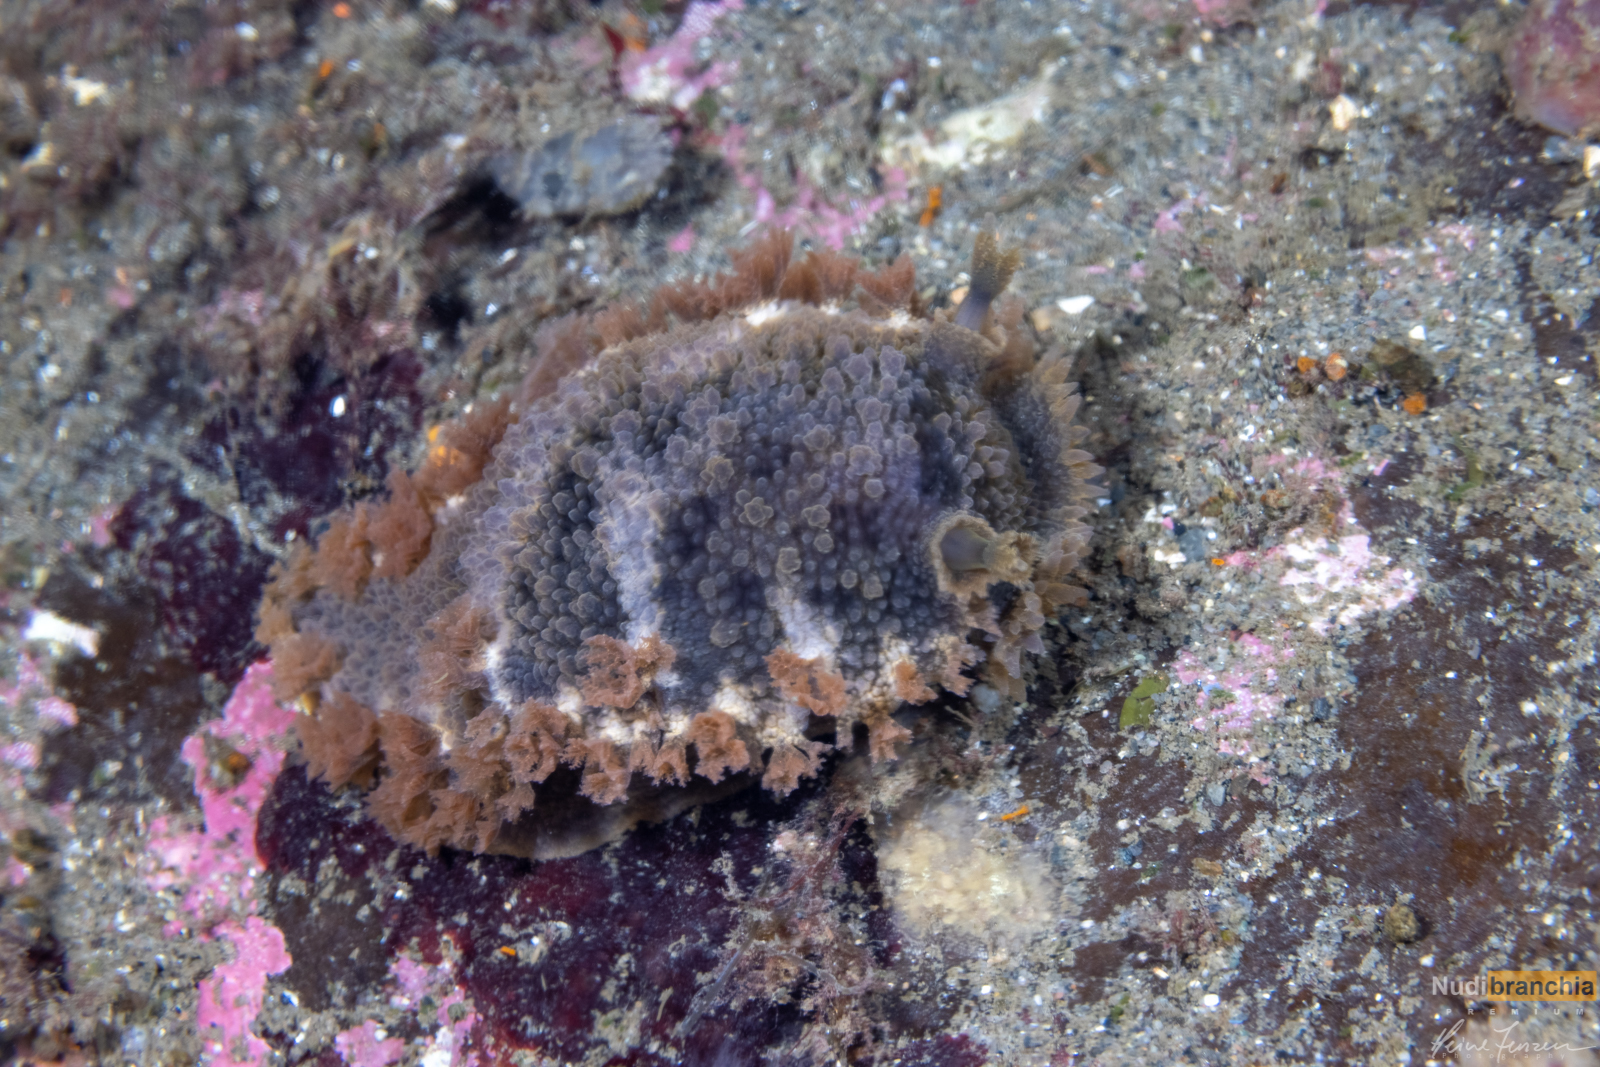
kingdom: Animalia
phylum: Mollusca
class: Gastropoda
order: Nudibranchia
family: Tritoniidae
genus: Tritonia
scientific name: Tritonia hombergii
